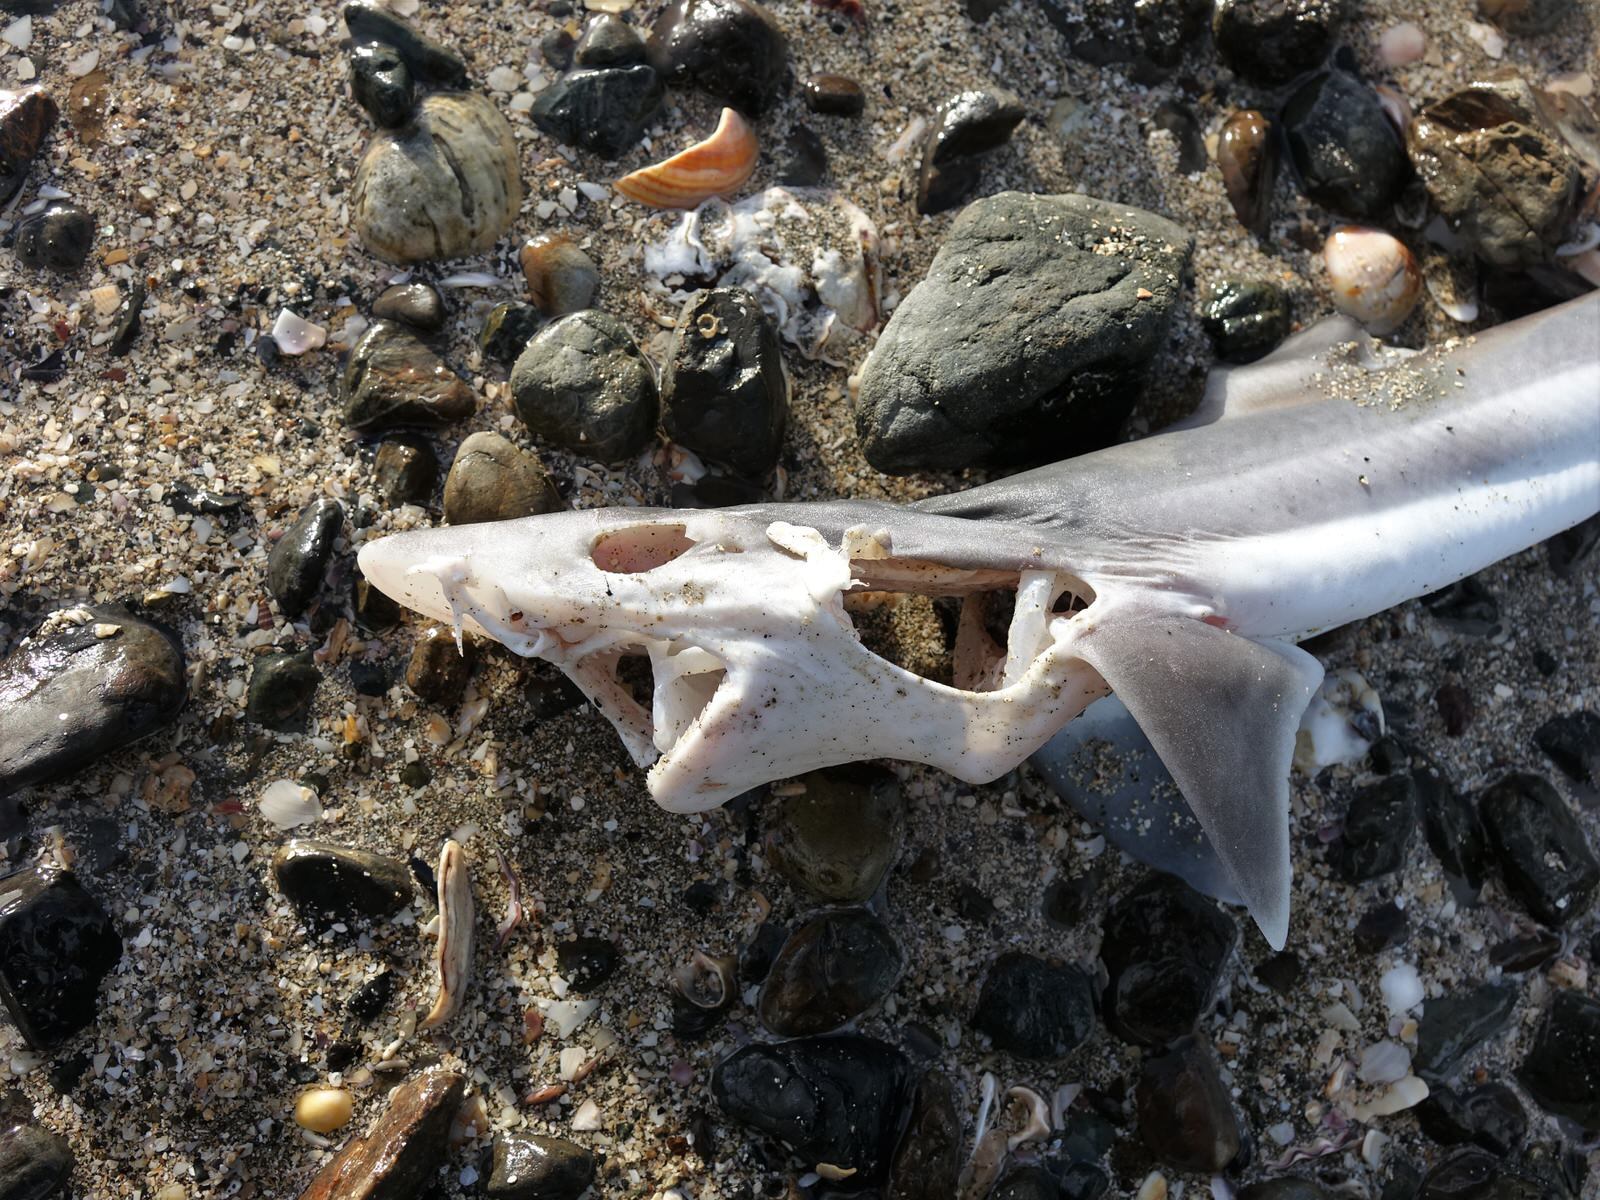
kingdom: Animalia
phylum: Chordata
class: Elasmobranchii
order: Carcharhiniformes
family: Triakidae
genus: Galeorhinus
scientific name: Galeorhinus galeus
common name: Tope
